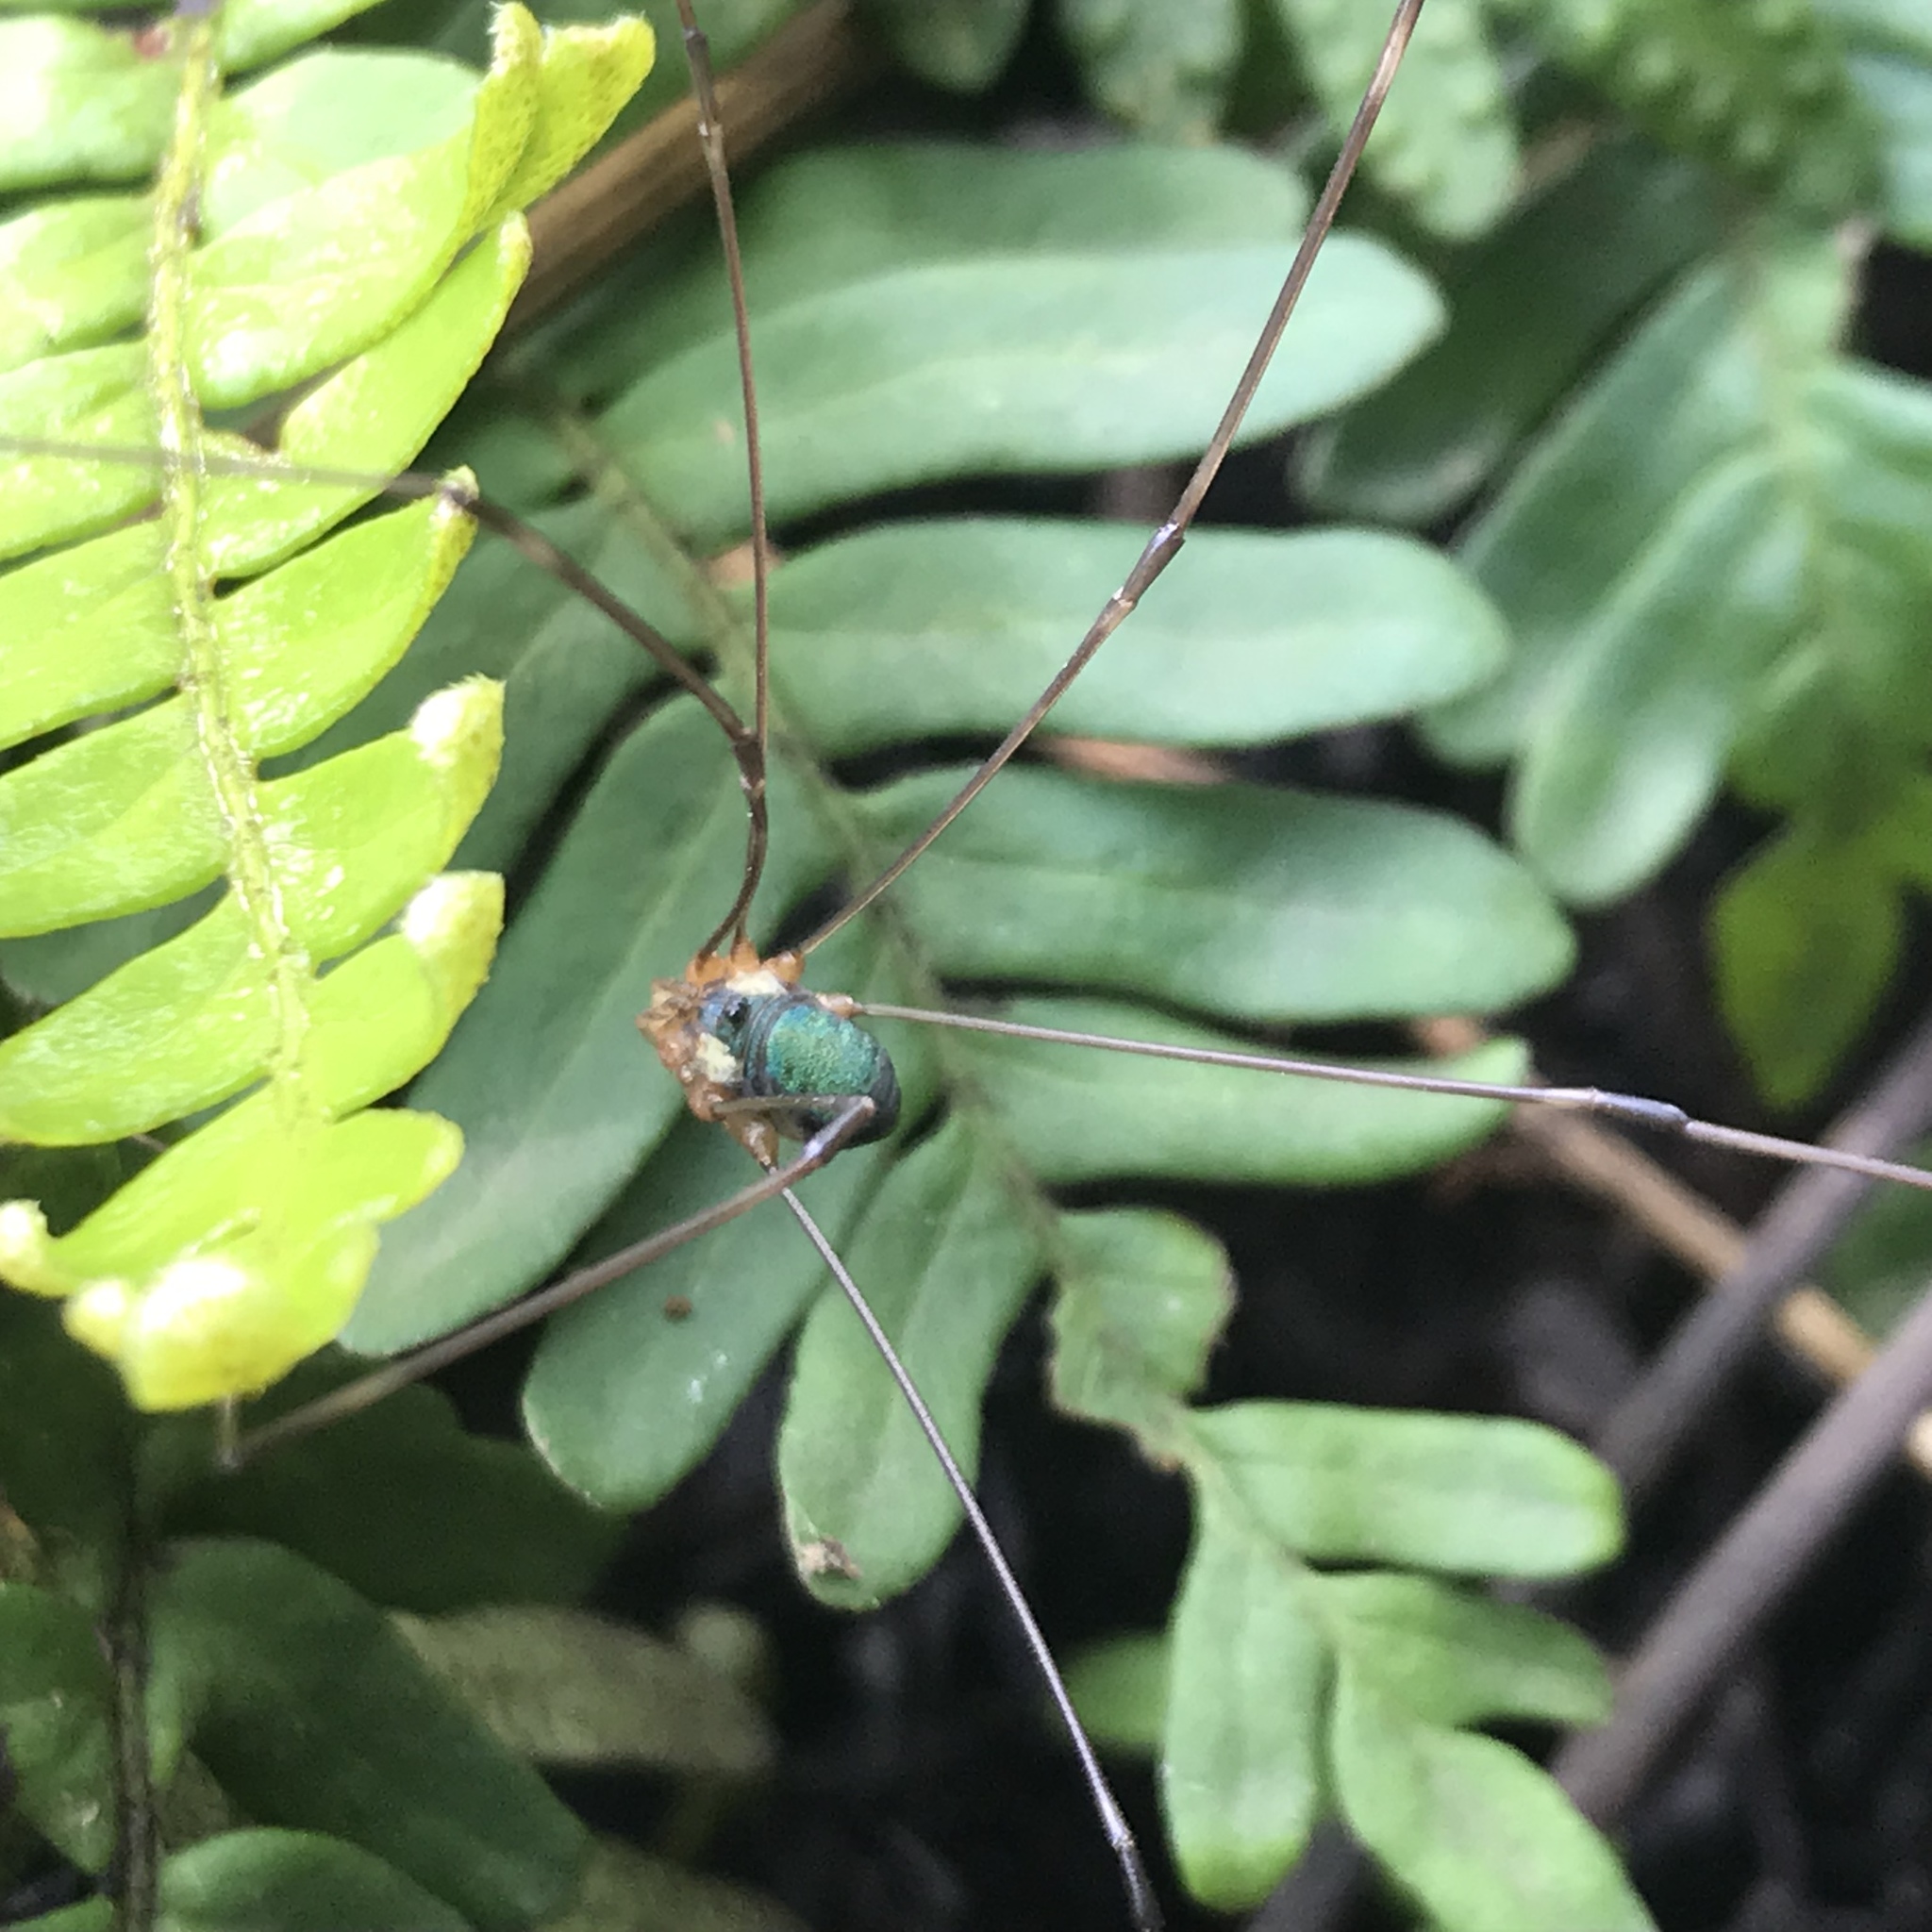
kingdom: Animalia
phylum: Arthropoda
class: Arachnida
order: Opiliones
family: Sclerosomatidae
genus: Leiobunum
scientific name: Leiobunum viridorsum
